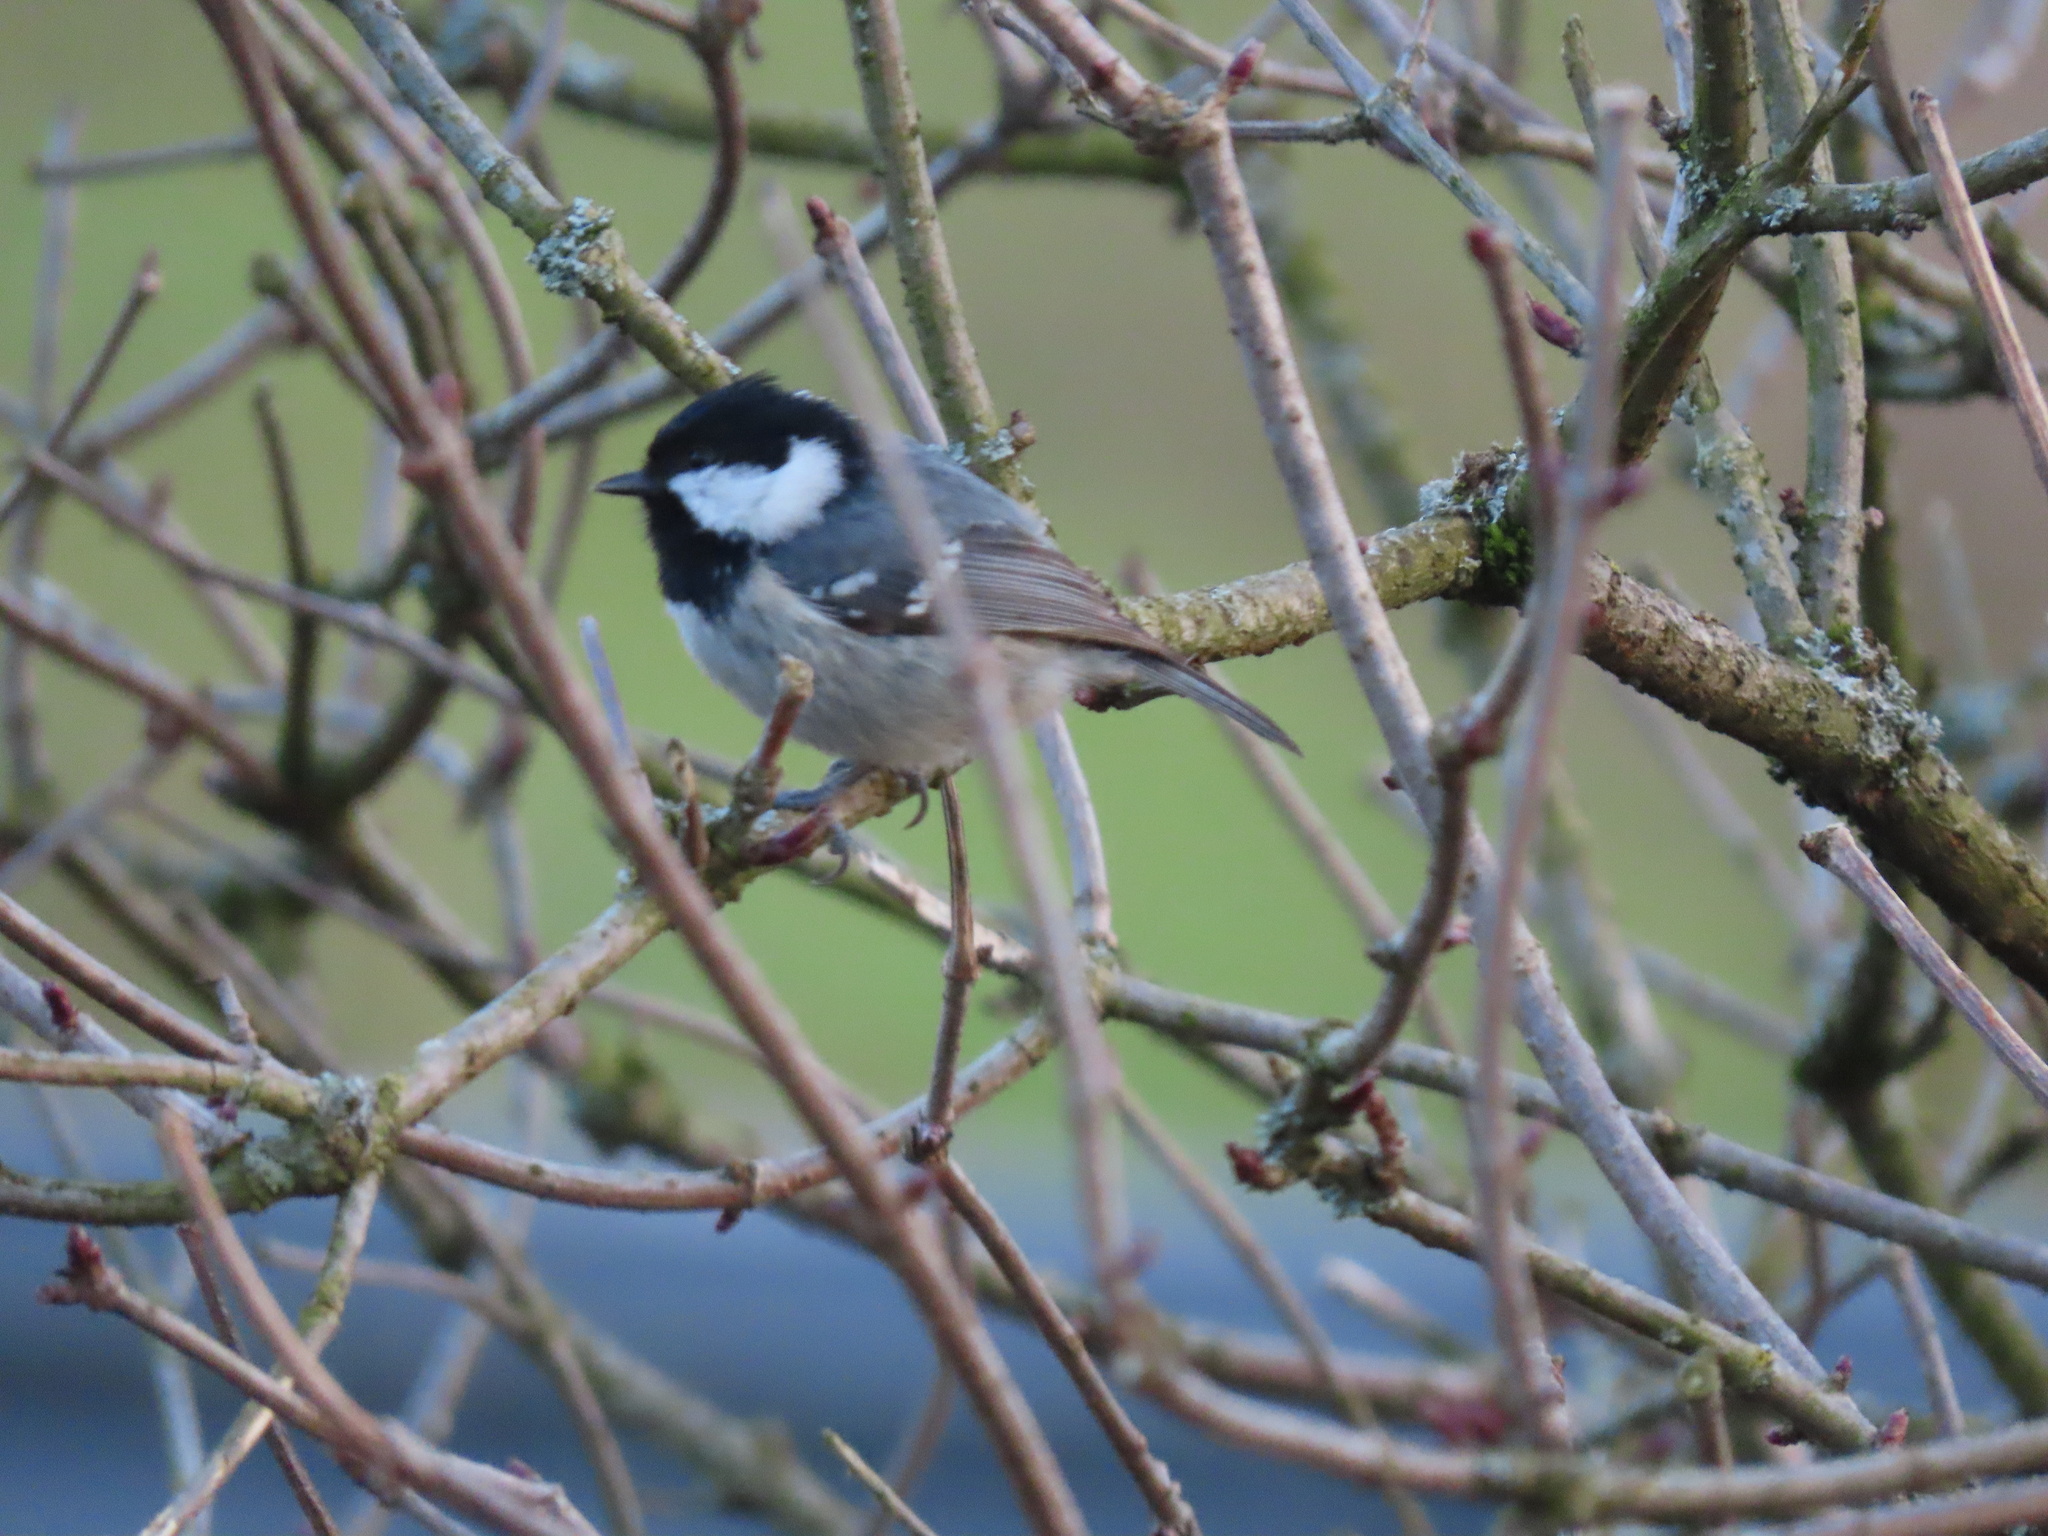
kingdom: Animalia
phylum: Chordata
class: Aves
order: Passeriformes
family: Paridae
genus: Periparus
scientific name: Periparus ater
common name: Coal tit
